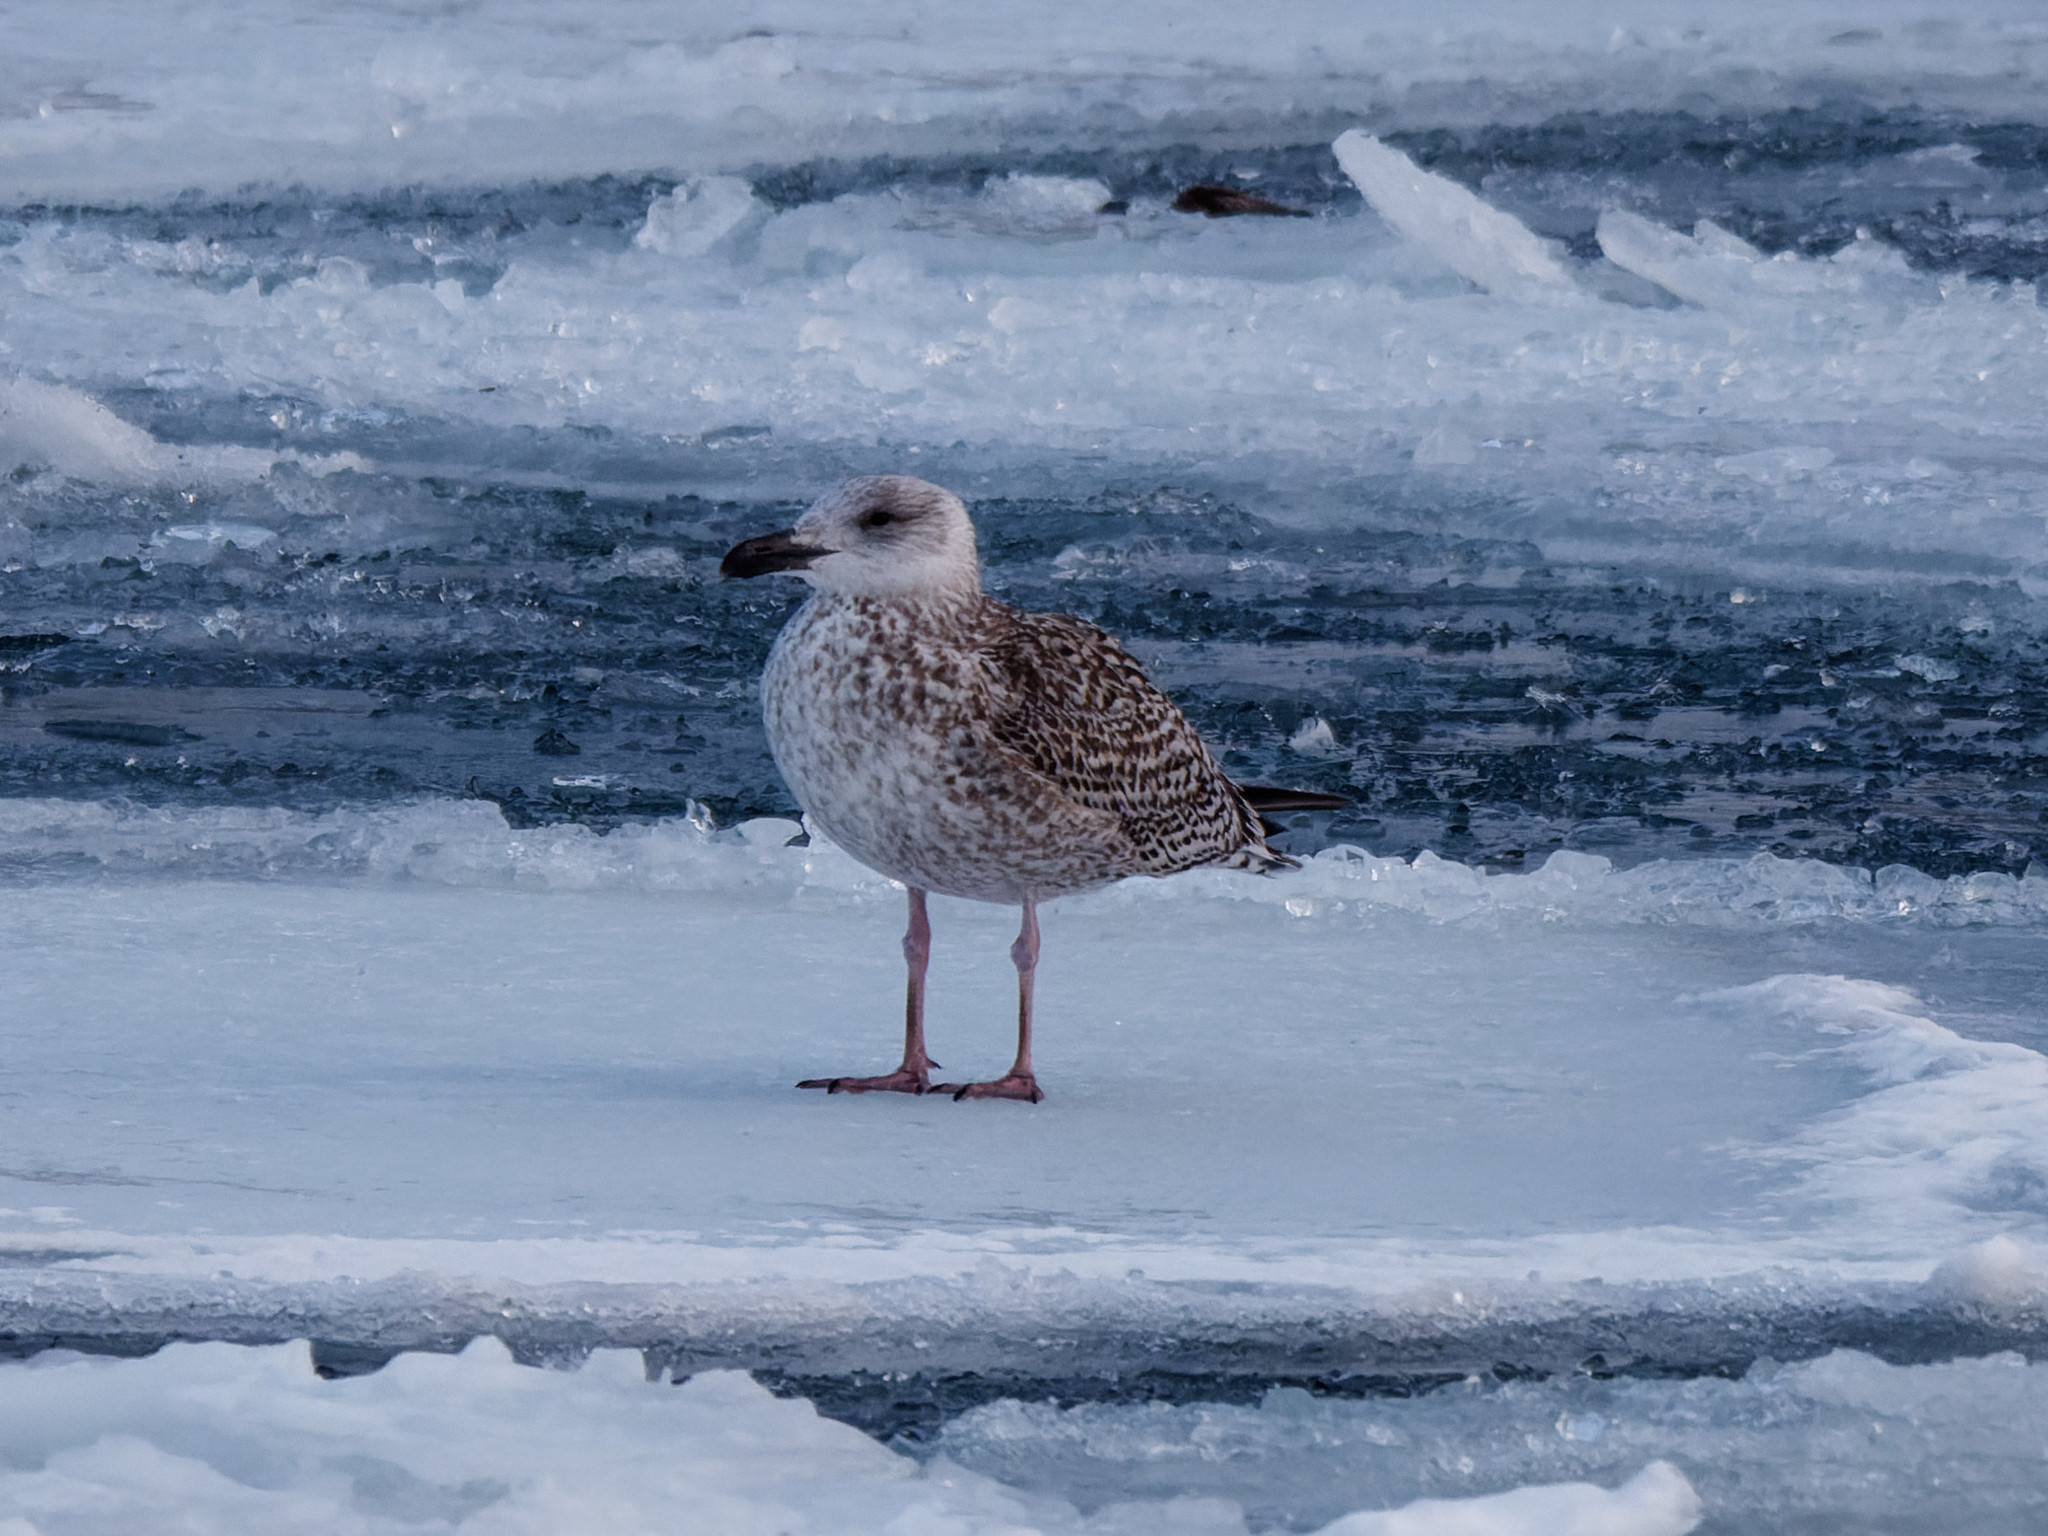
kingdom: Animalia
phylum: Chordata
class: Aves
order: Charadriiformes
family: Laridae
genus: Larus
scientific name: Larus marinus
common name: Great black-backed gull
